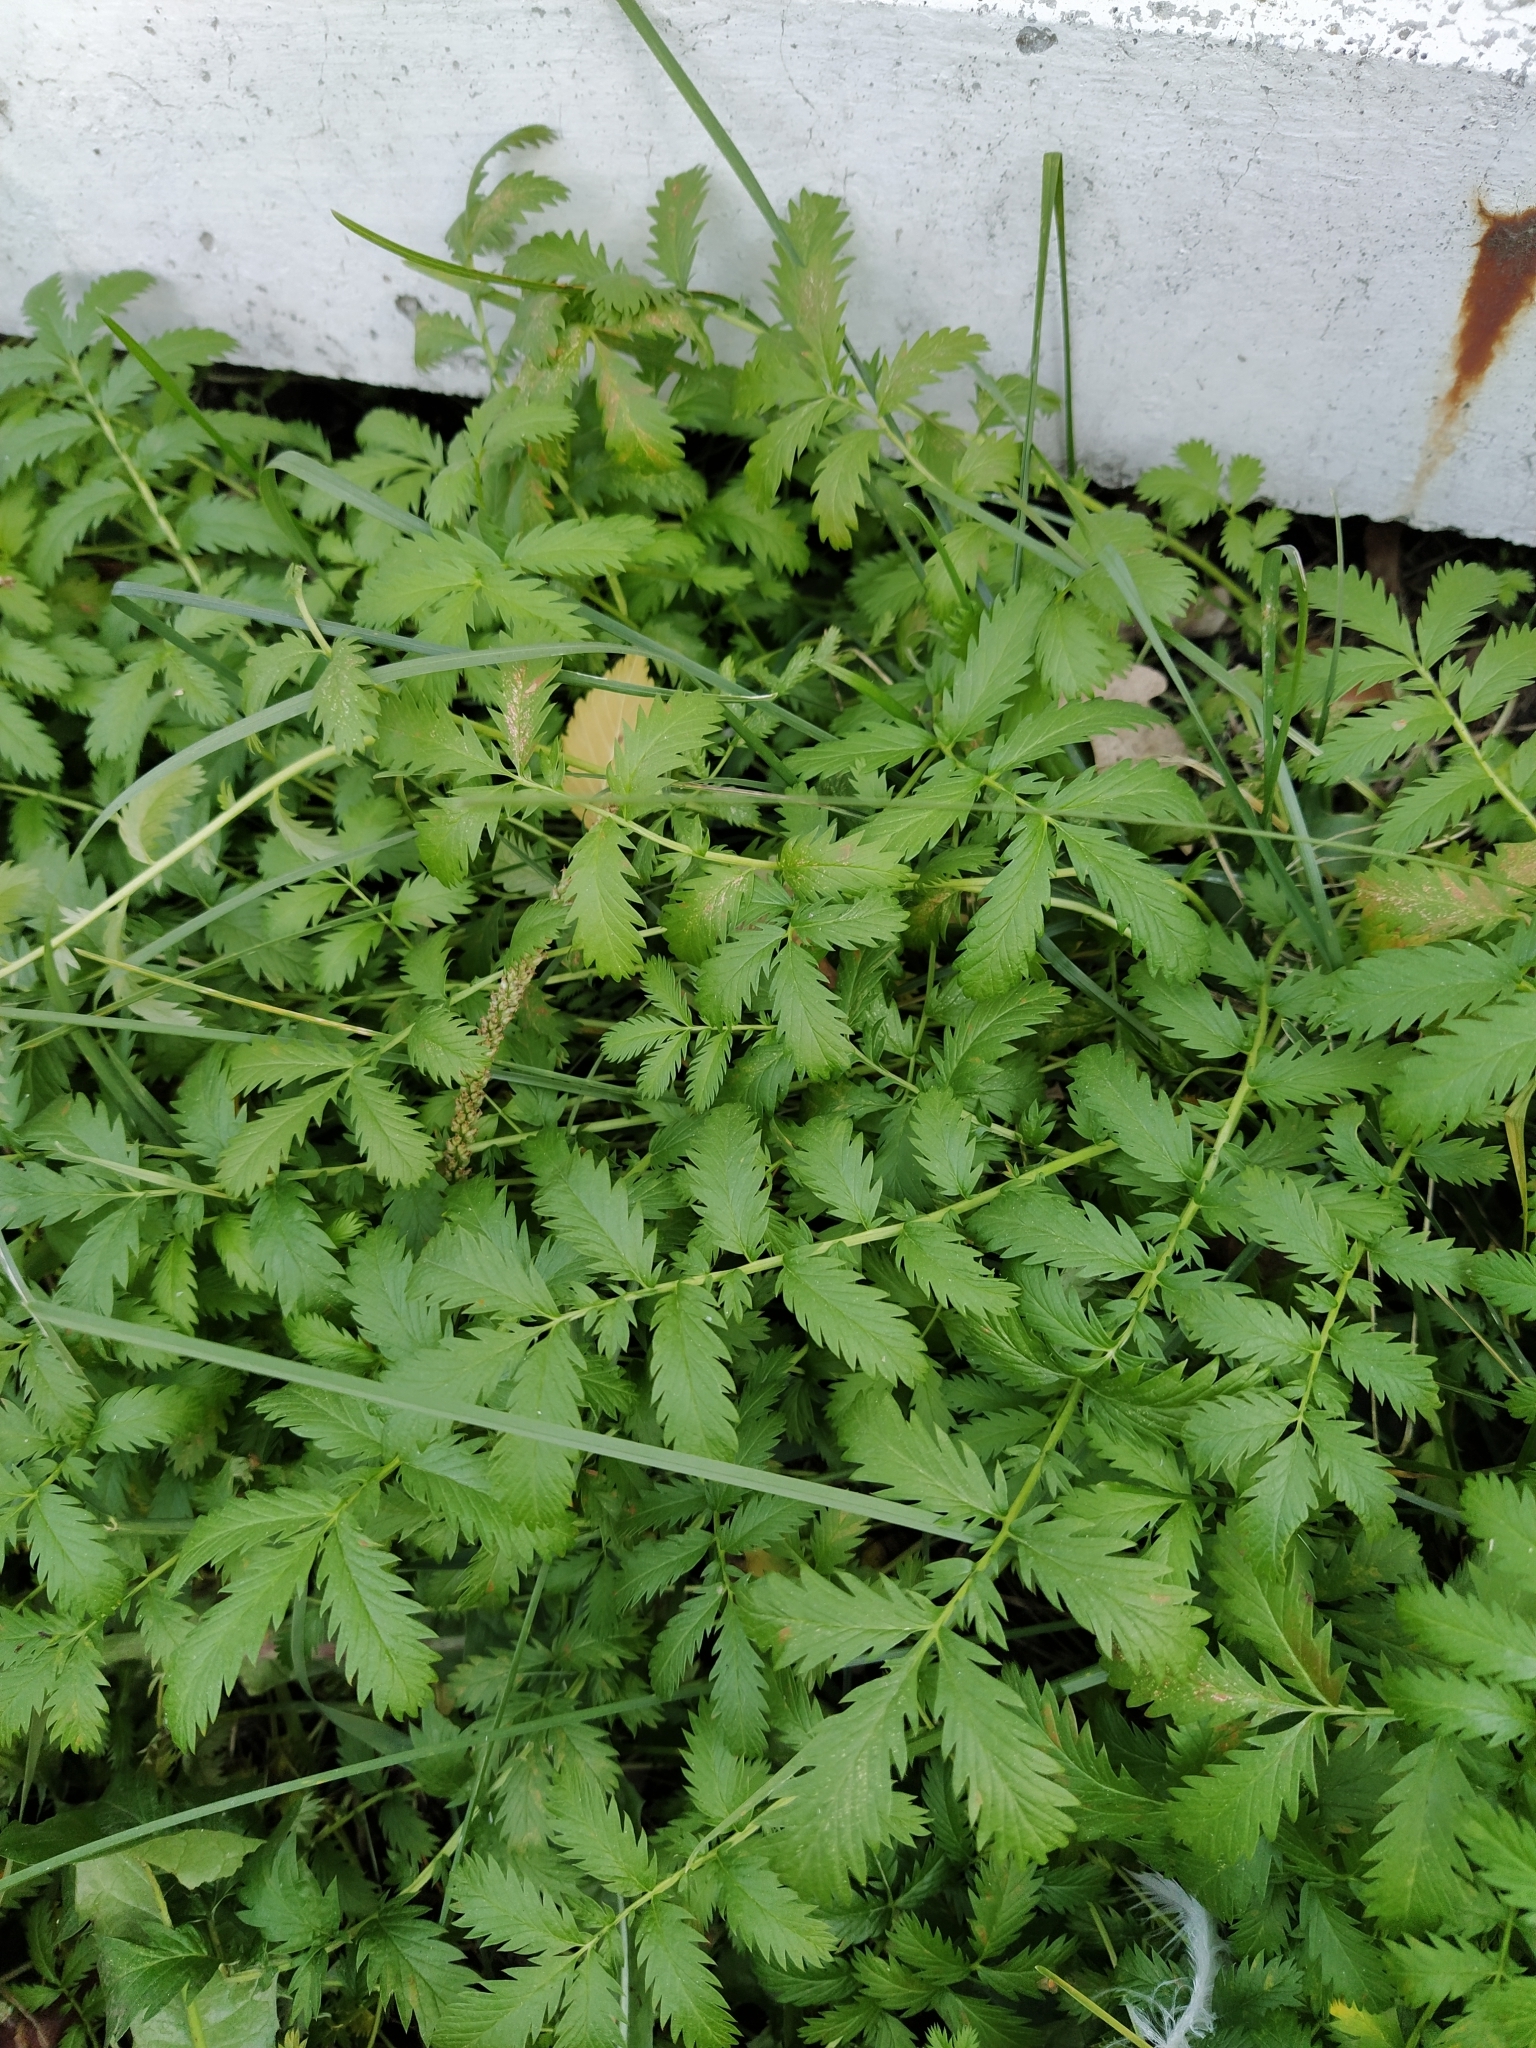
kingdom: Plantae
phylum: Tracheophyta
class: Magnoliopsida
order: Rosales
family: Rosaceae
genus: Argentina
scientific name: Argentina anserina
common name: Common silverweed
